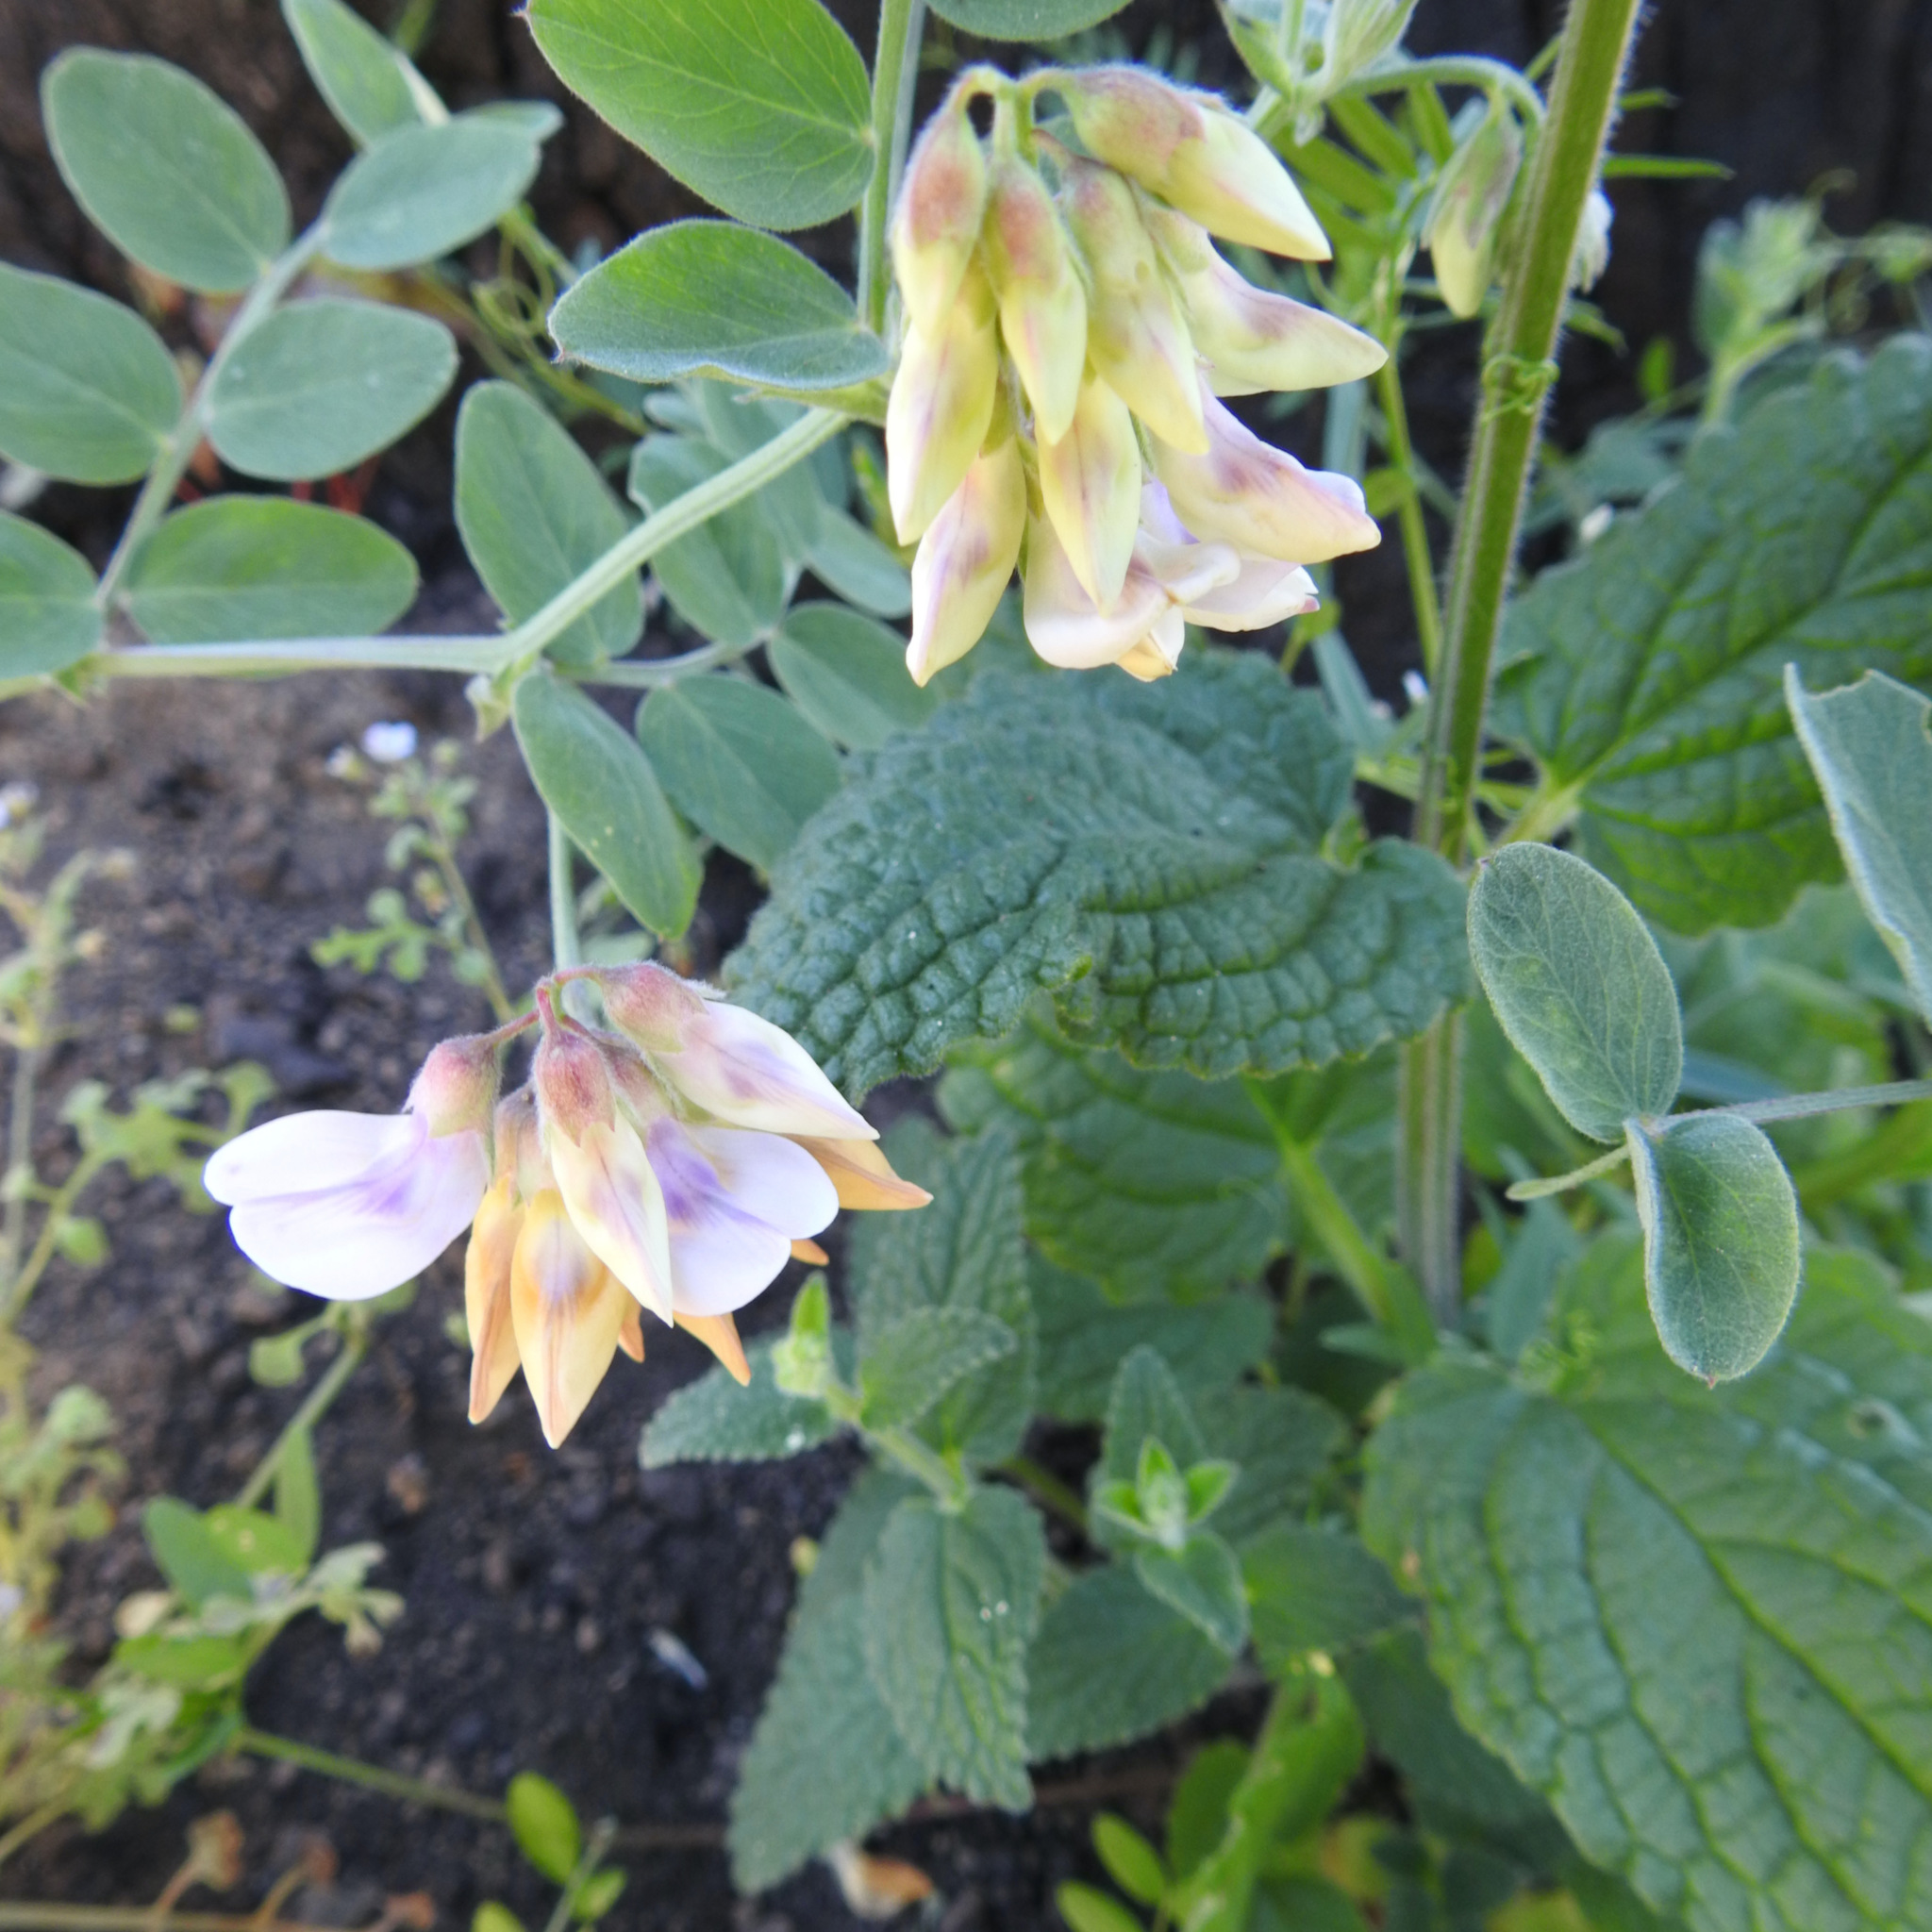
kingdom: Plantae
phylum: Tracheophyta
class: Magnoliopsida
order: Fabales
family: Fabaceae
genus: Lathyrus
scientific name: Lathyrus vestitus
